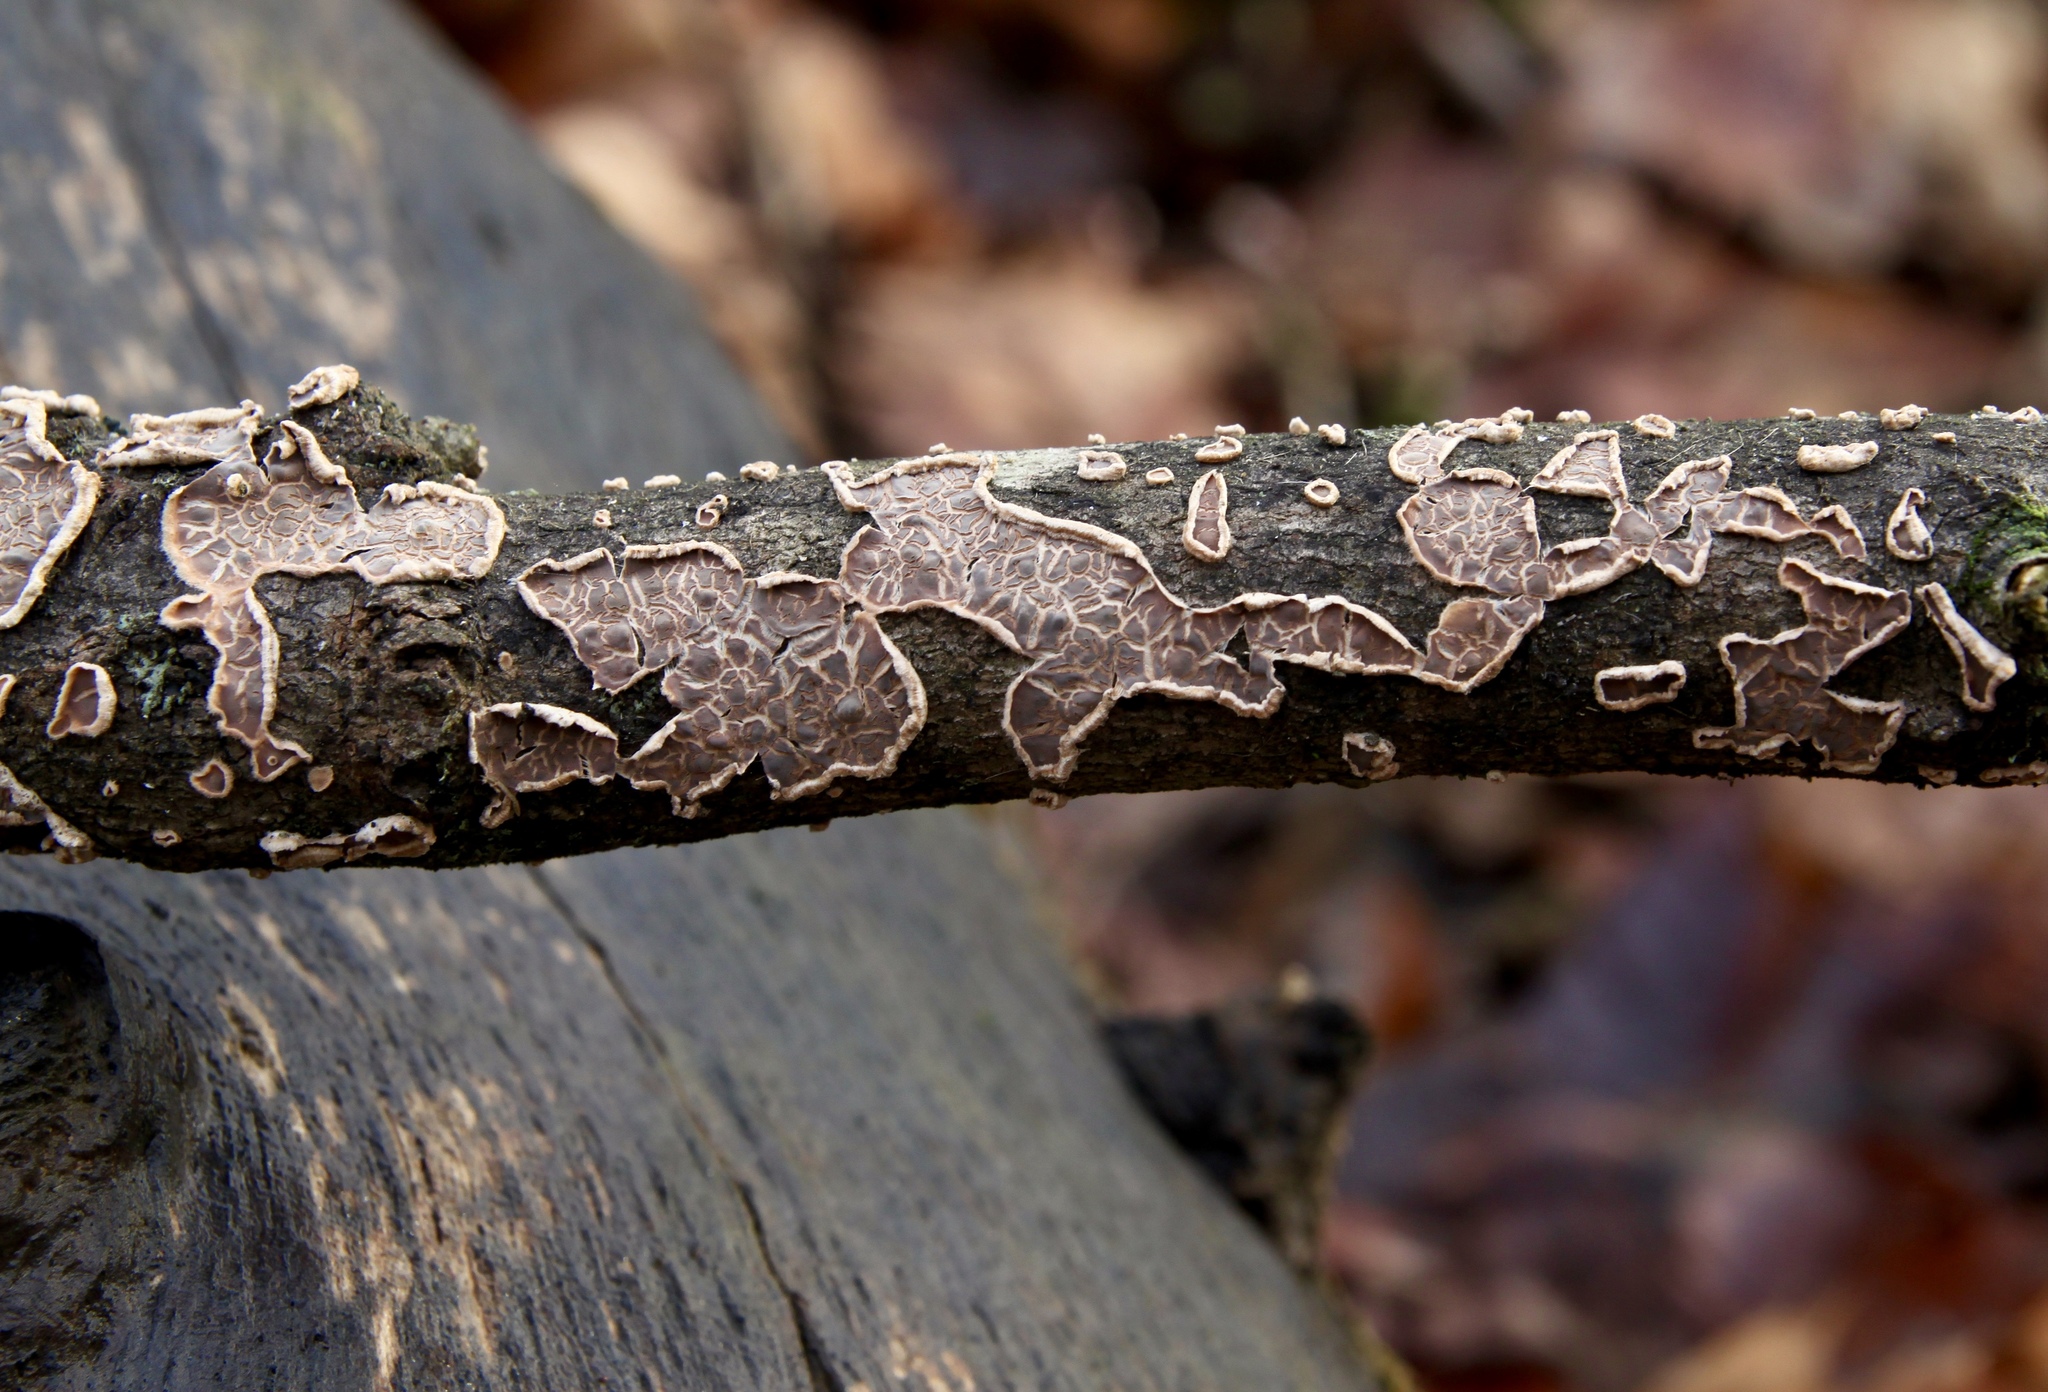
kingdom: Fungi
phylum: Basidiomycota
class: Agaricomycetes
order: Russulales
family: Peniophoraceae
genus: Peniophora
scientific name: Peniophora albobadia
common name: Giraffe spots
